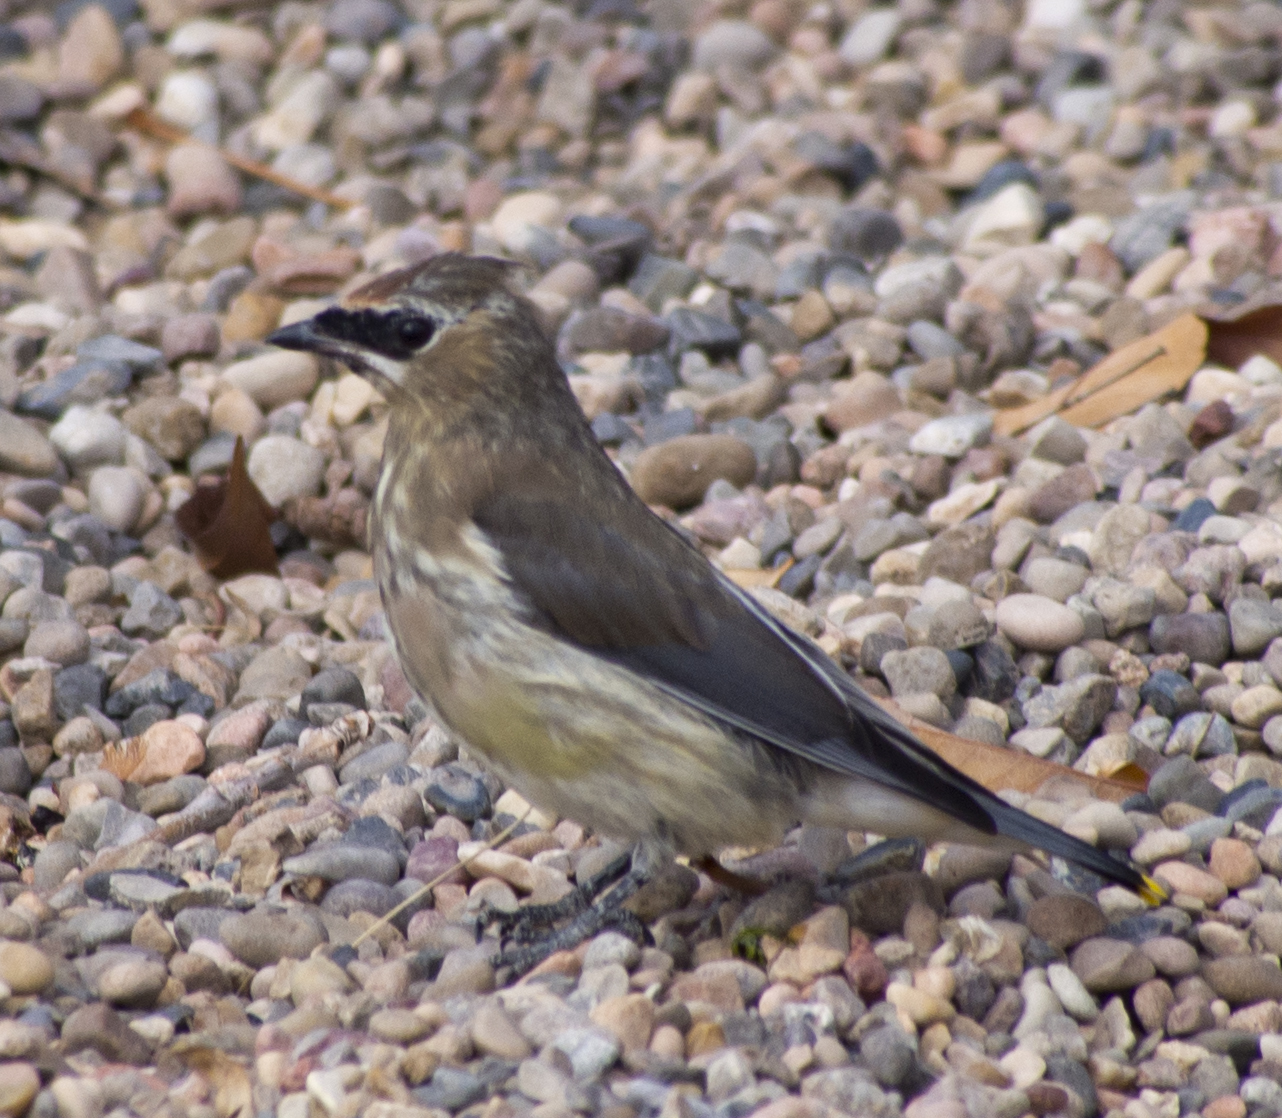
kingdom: Animalia
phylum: Chordata
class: Aves
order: Passeriformes
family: Bombycillidae
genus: Bombycilla
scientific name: Bombycilla cedrorum
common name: Cedar waxwing
